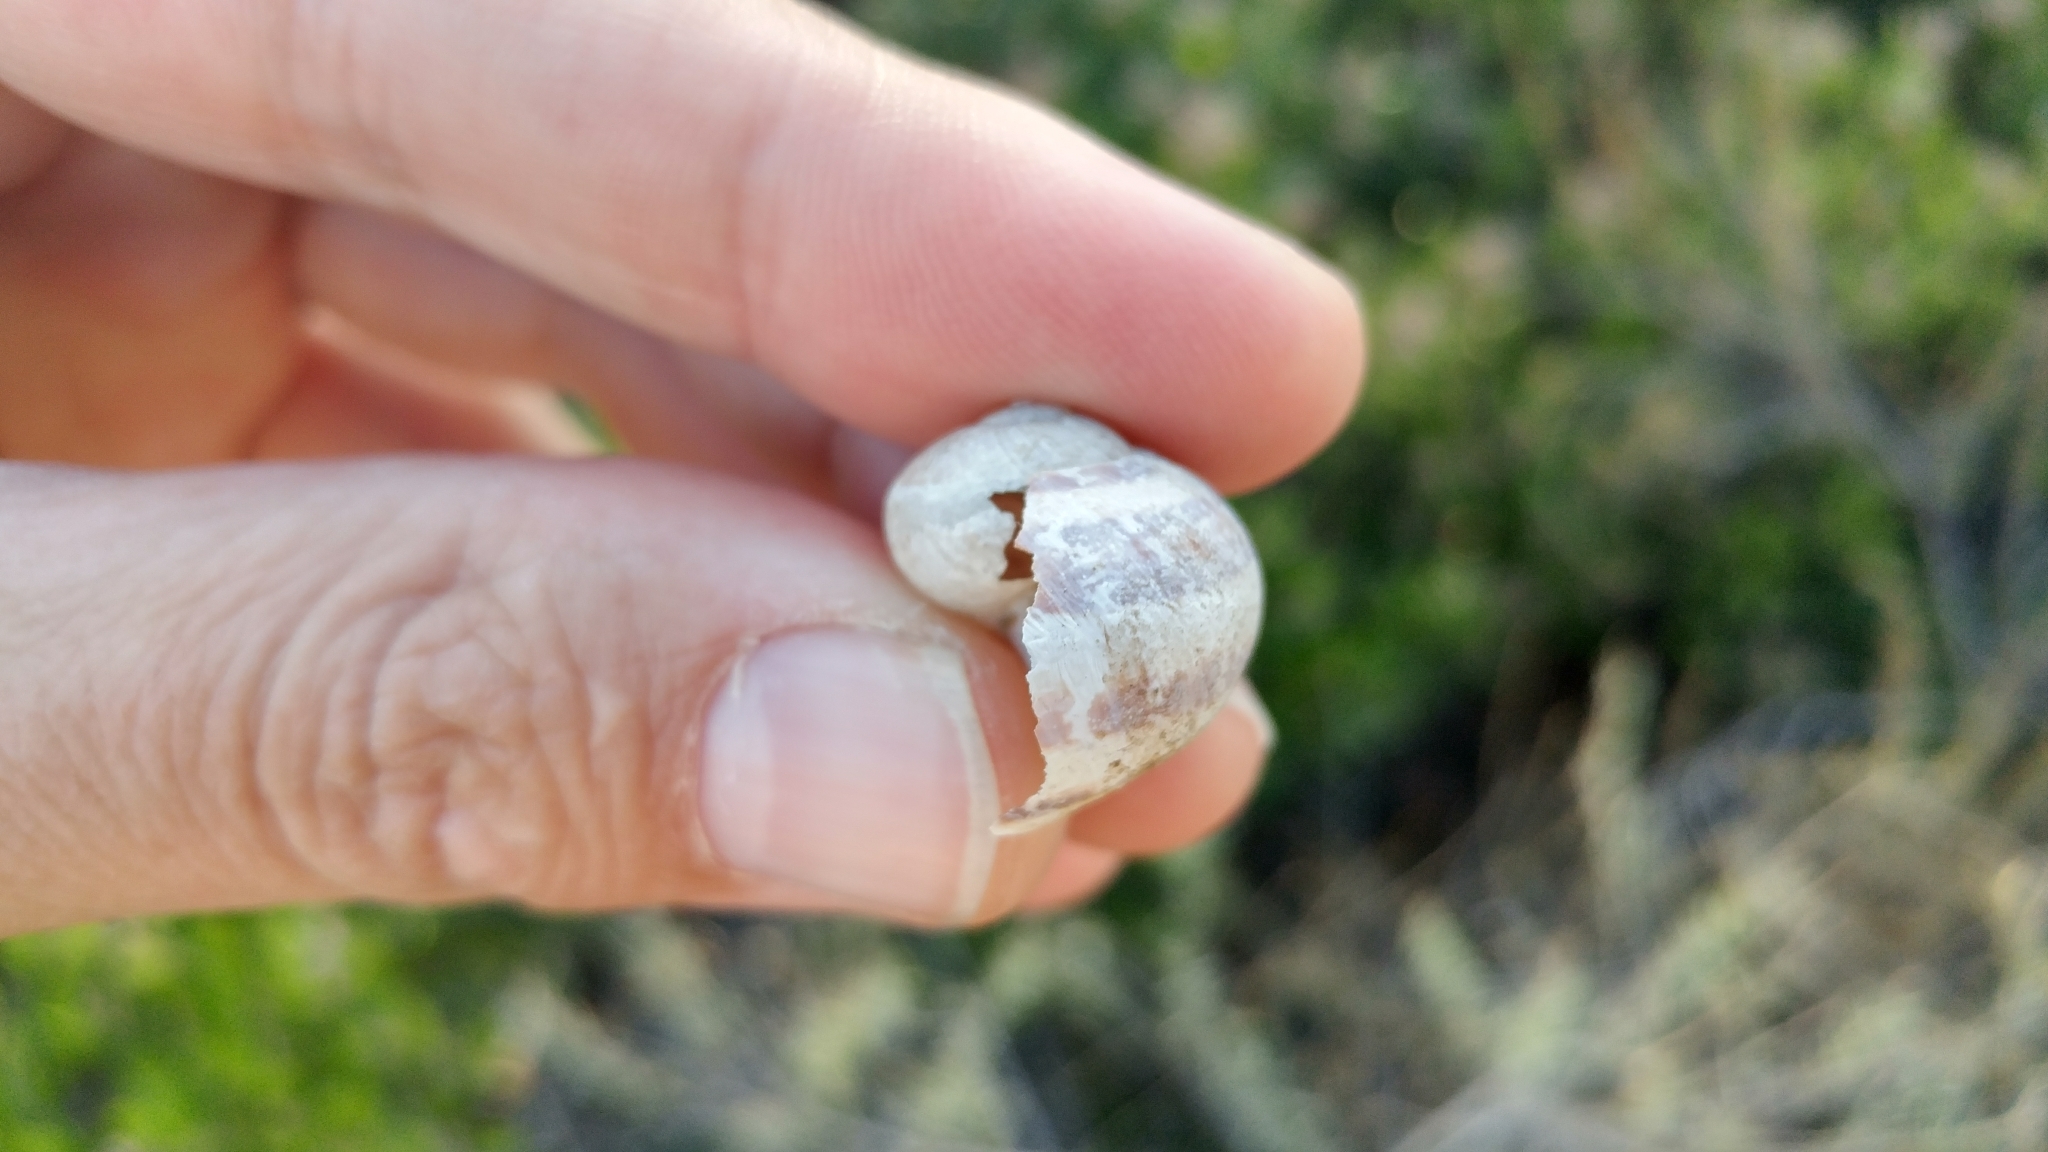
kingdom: Animalia
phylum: Mollusca
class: Gastropoda
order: Stylommatophora
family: Helicidae
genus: Cornu
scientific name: Cornu aspersum
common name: Brown garden snail
